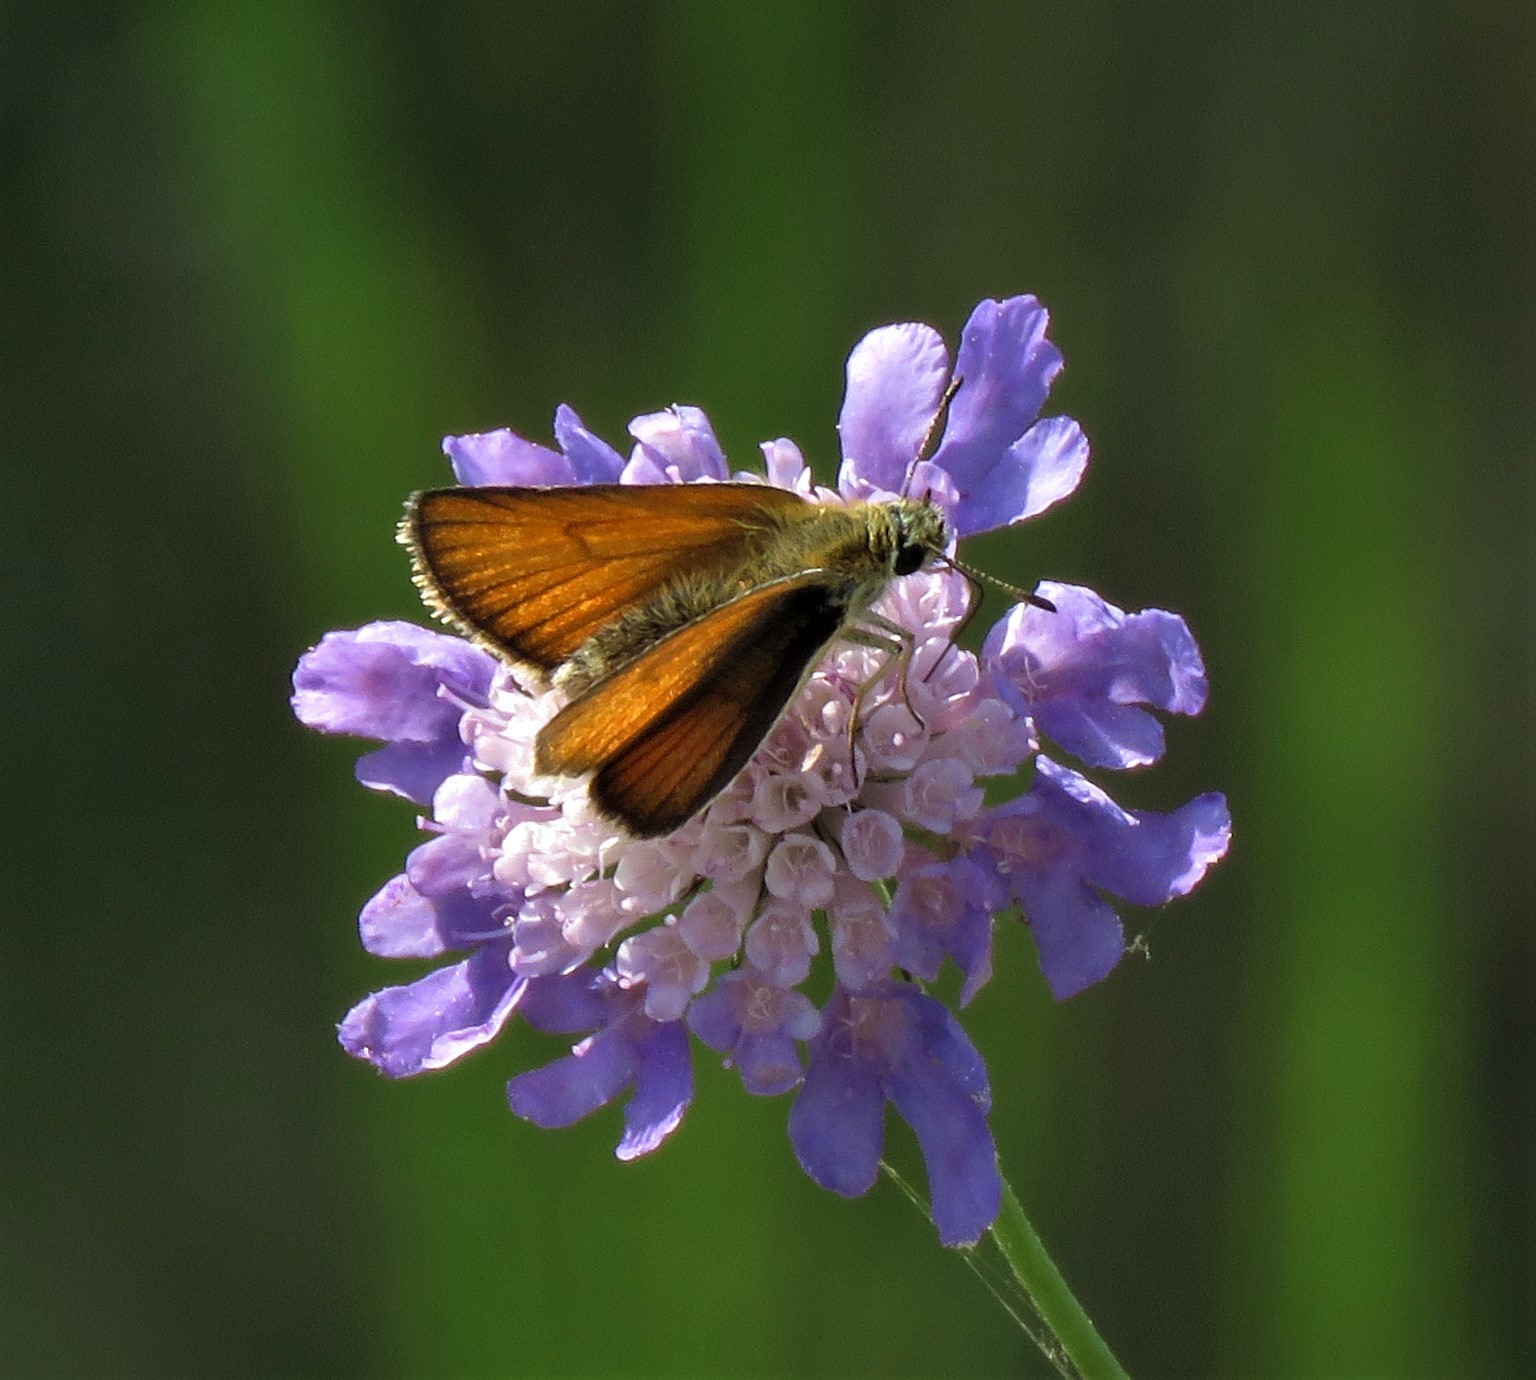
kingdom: Animalia
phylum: Arthropoda
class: Insecta
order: Lepidoptera
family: Hesperiidae
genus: Thymelicus
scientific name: Thymelicus lineola
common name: Essex skipper
